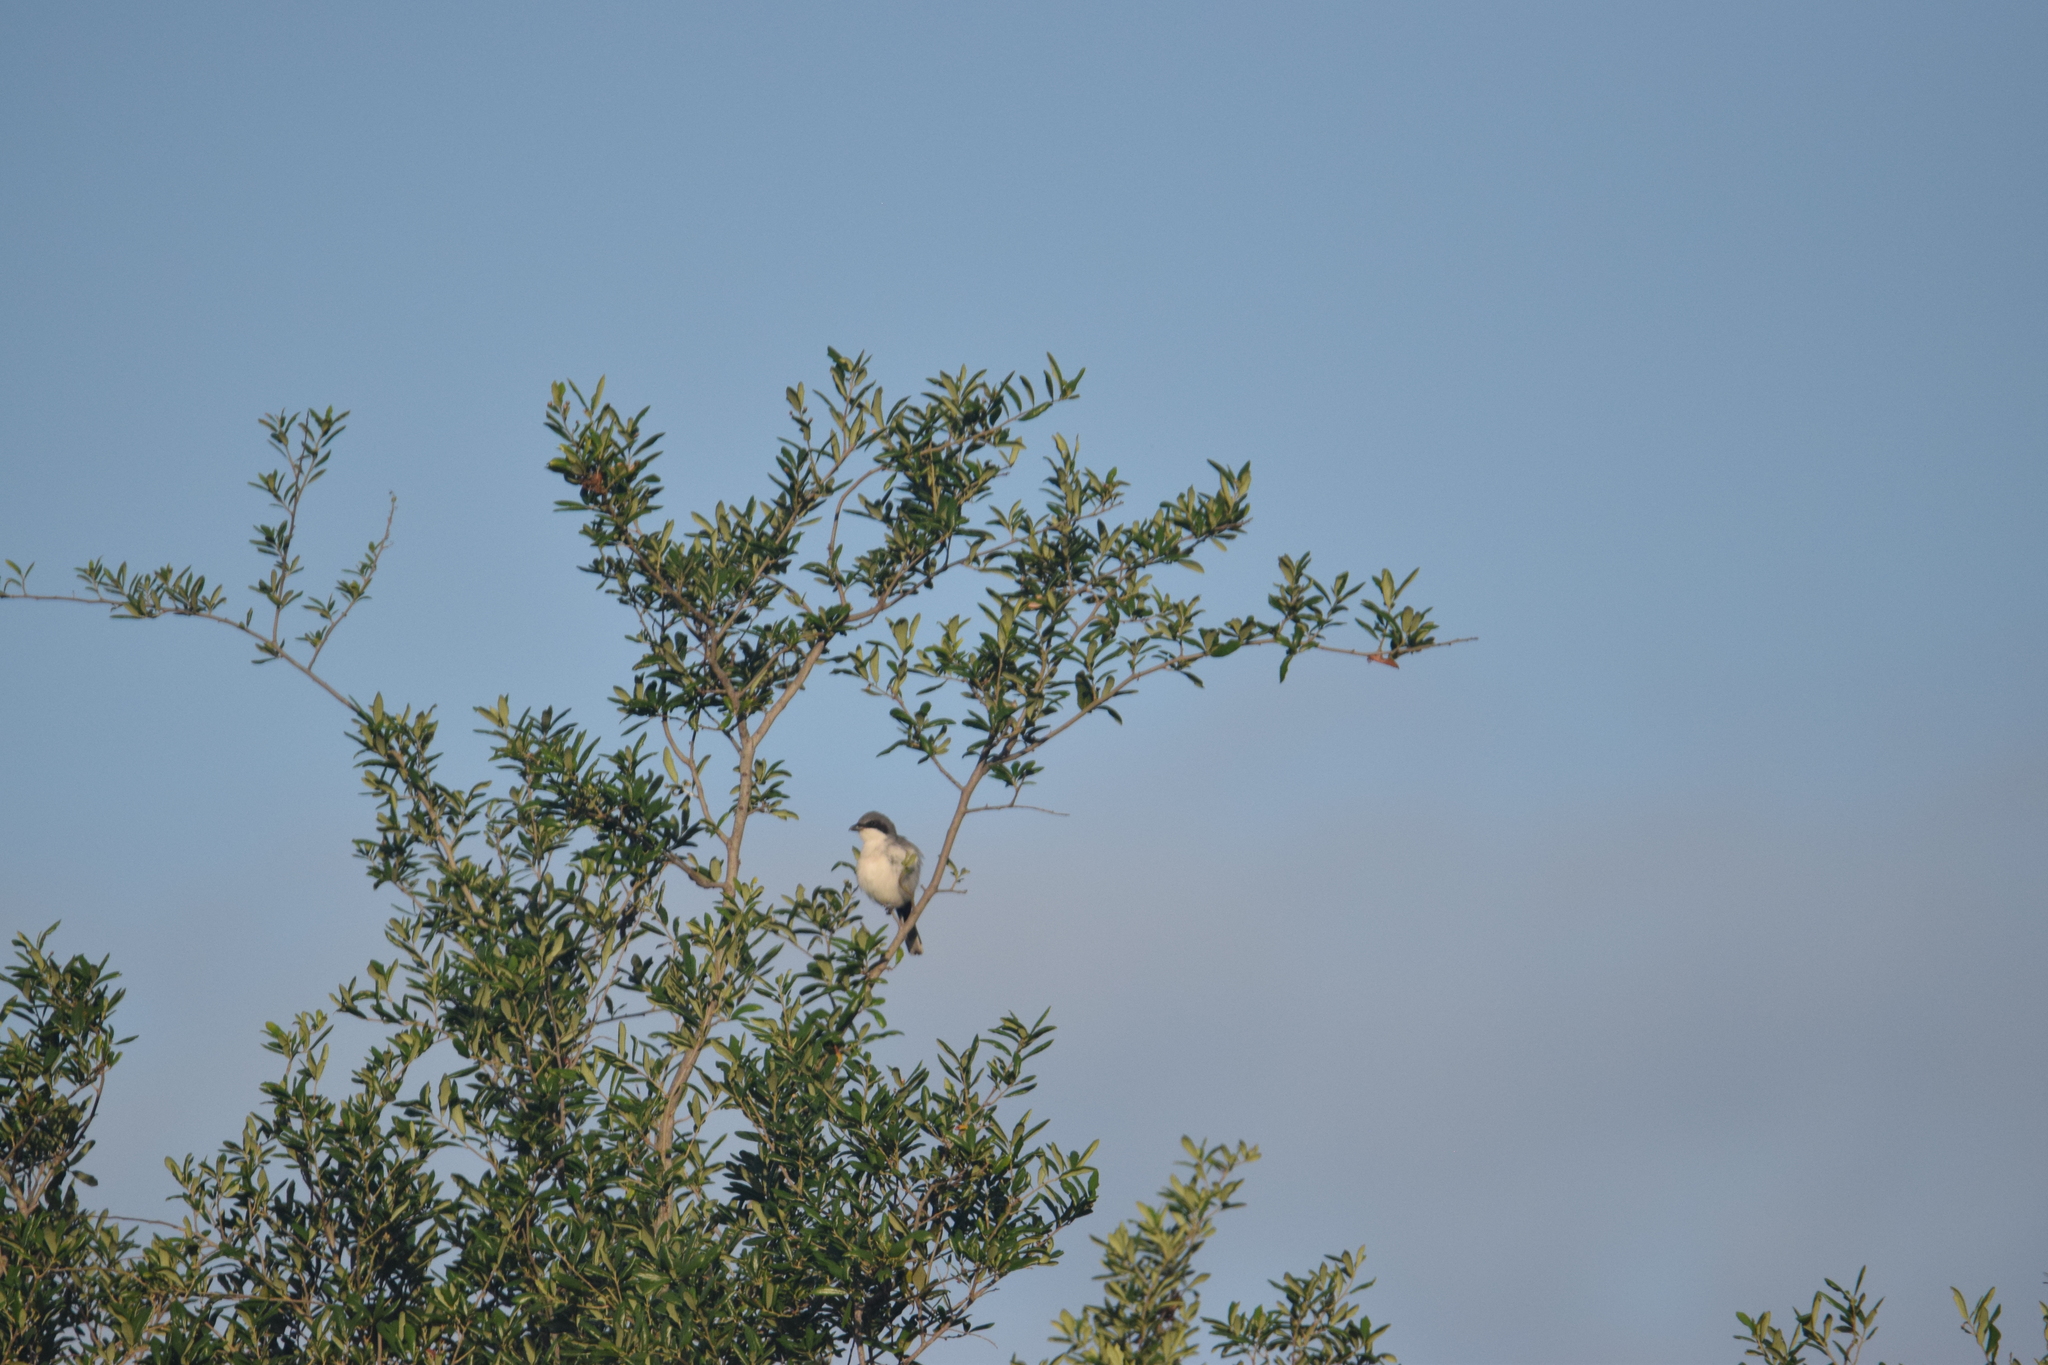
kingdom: Animalia
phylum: Chordata
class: Aves
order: Passeriformes
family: Laniidae
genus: Lanius
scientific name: Lanius ludovicianus
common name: Loggerhead shrike
